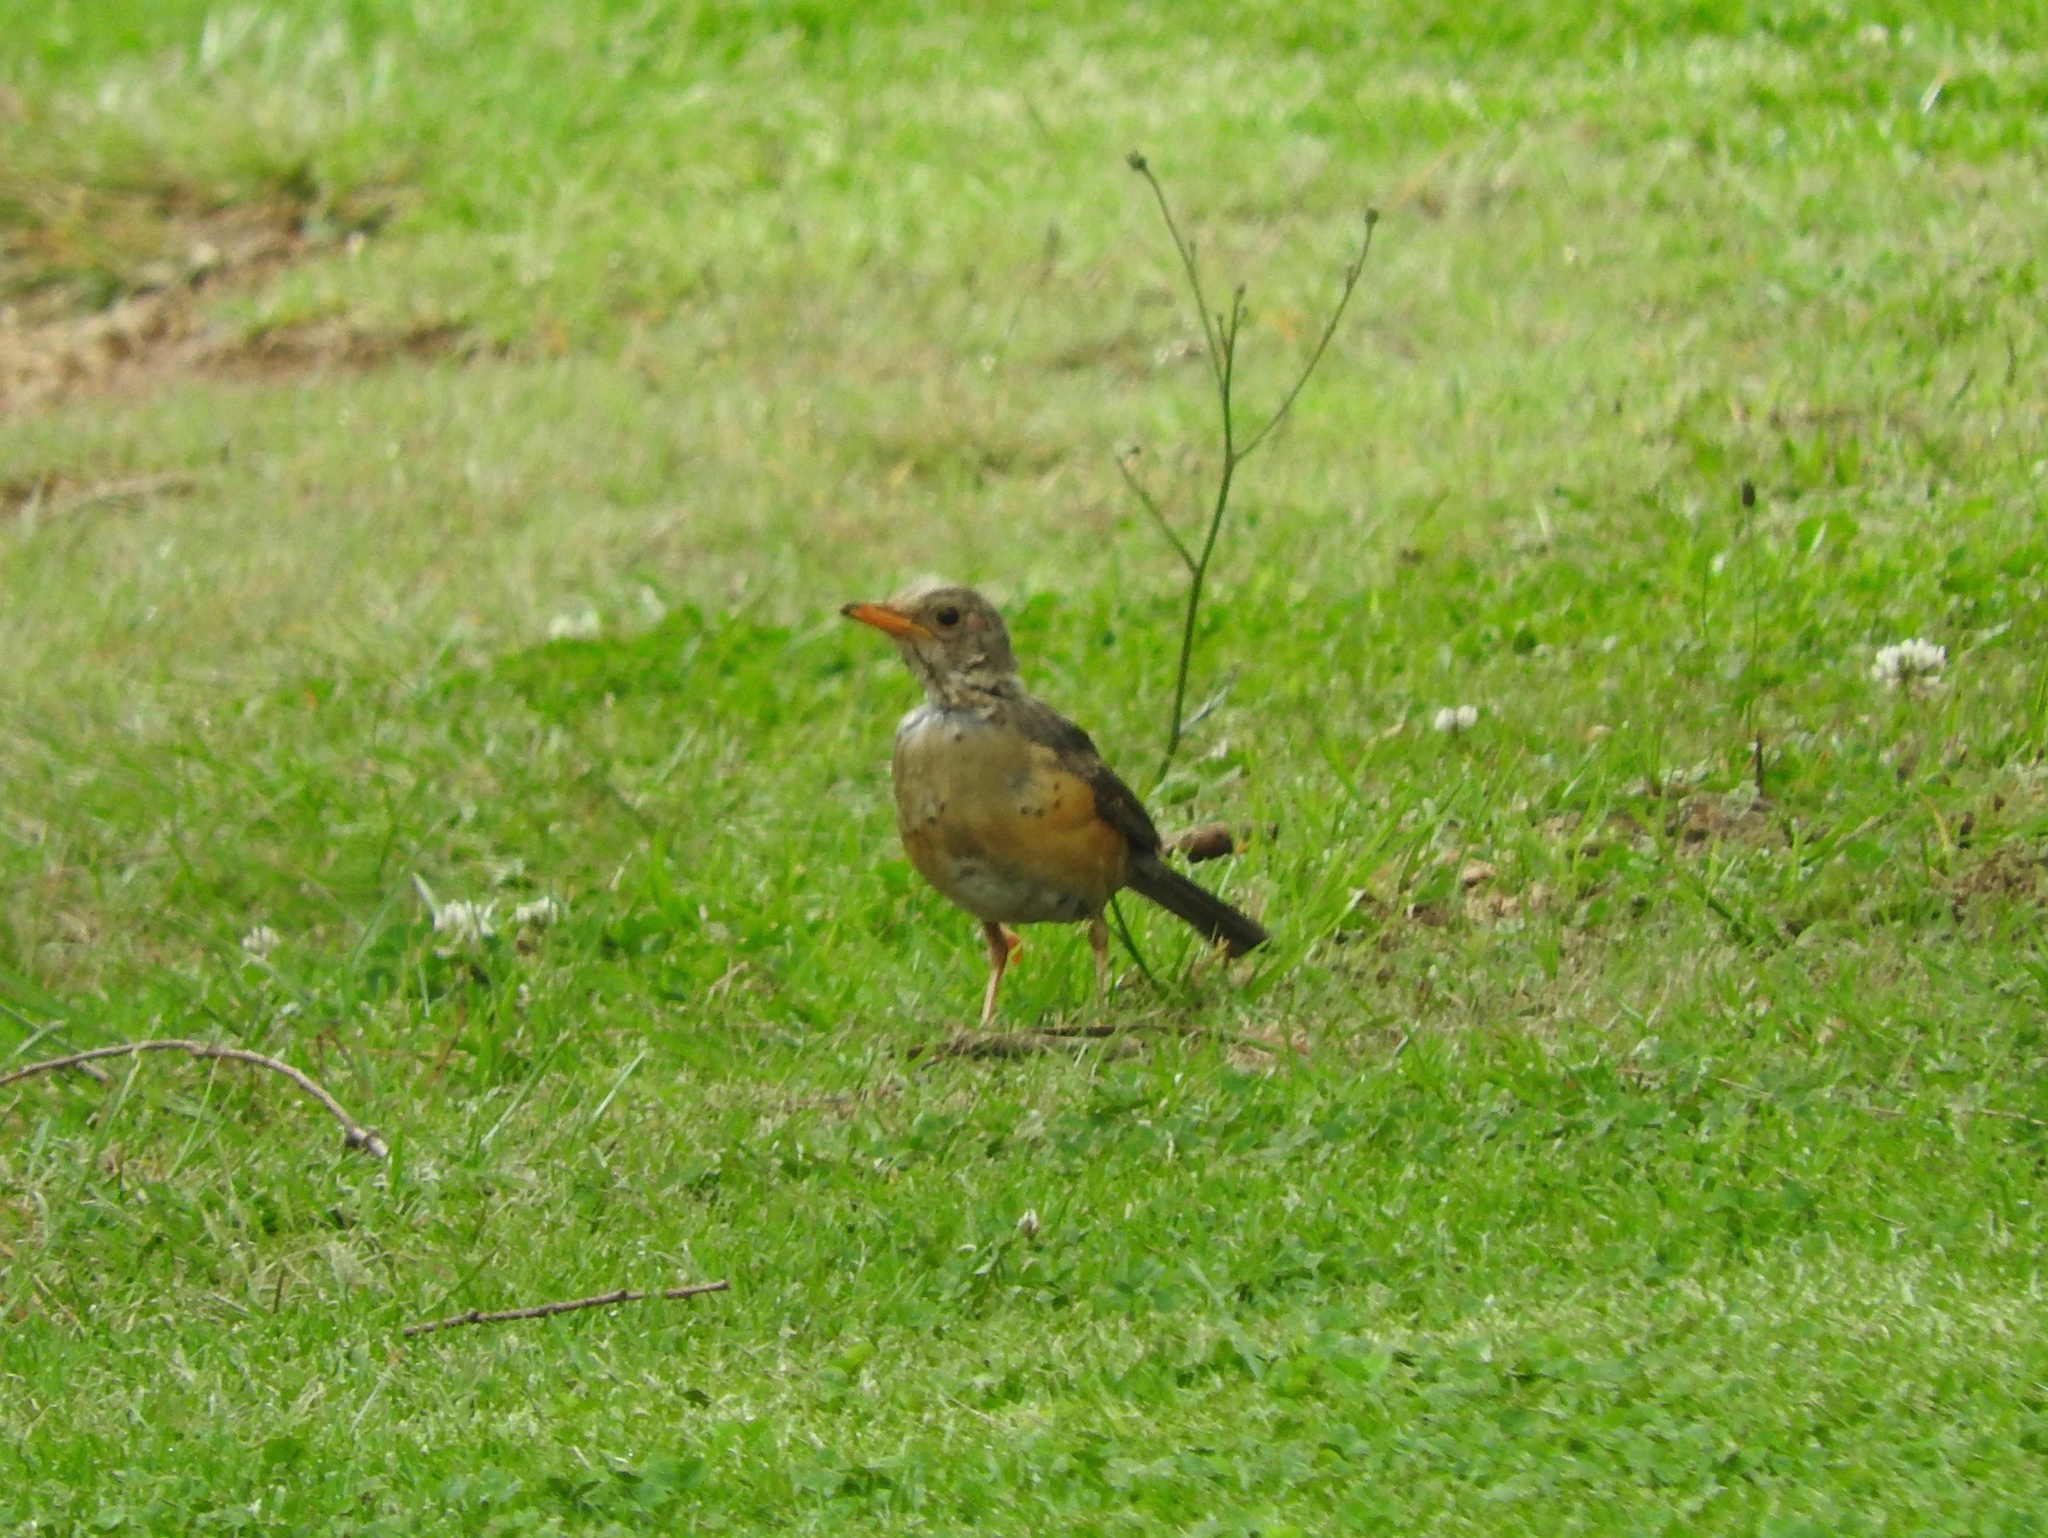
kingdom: Animalia
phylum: Chordata
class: Aves
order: Passeriformes
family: Turdidae
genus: Turdus
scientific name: Turdus libonyana
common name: Kurrichane thrush
